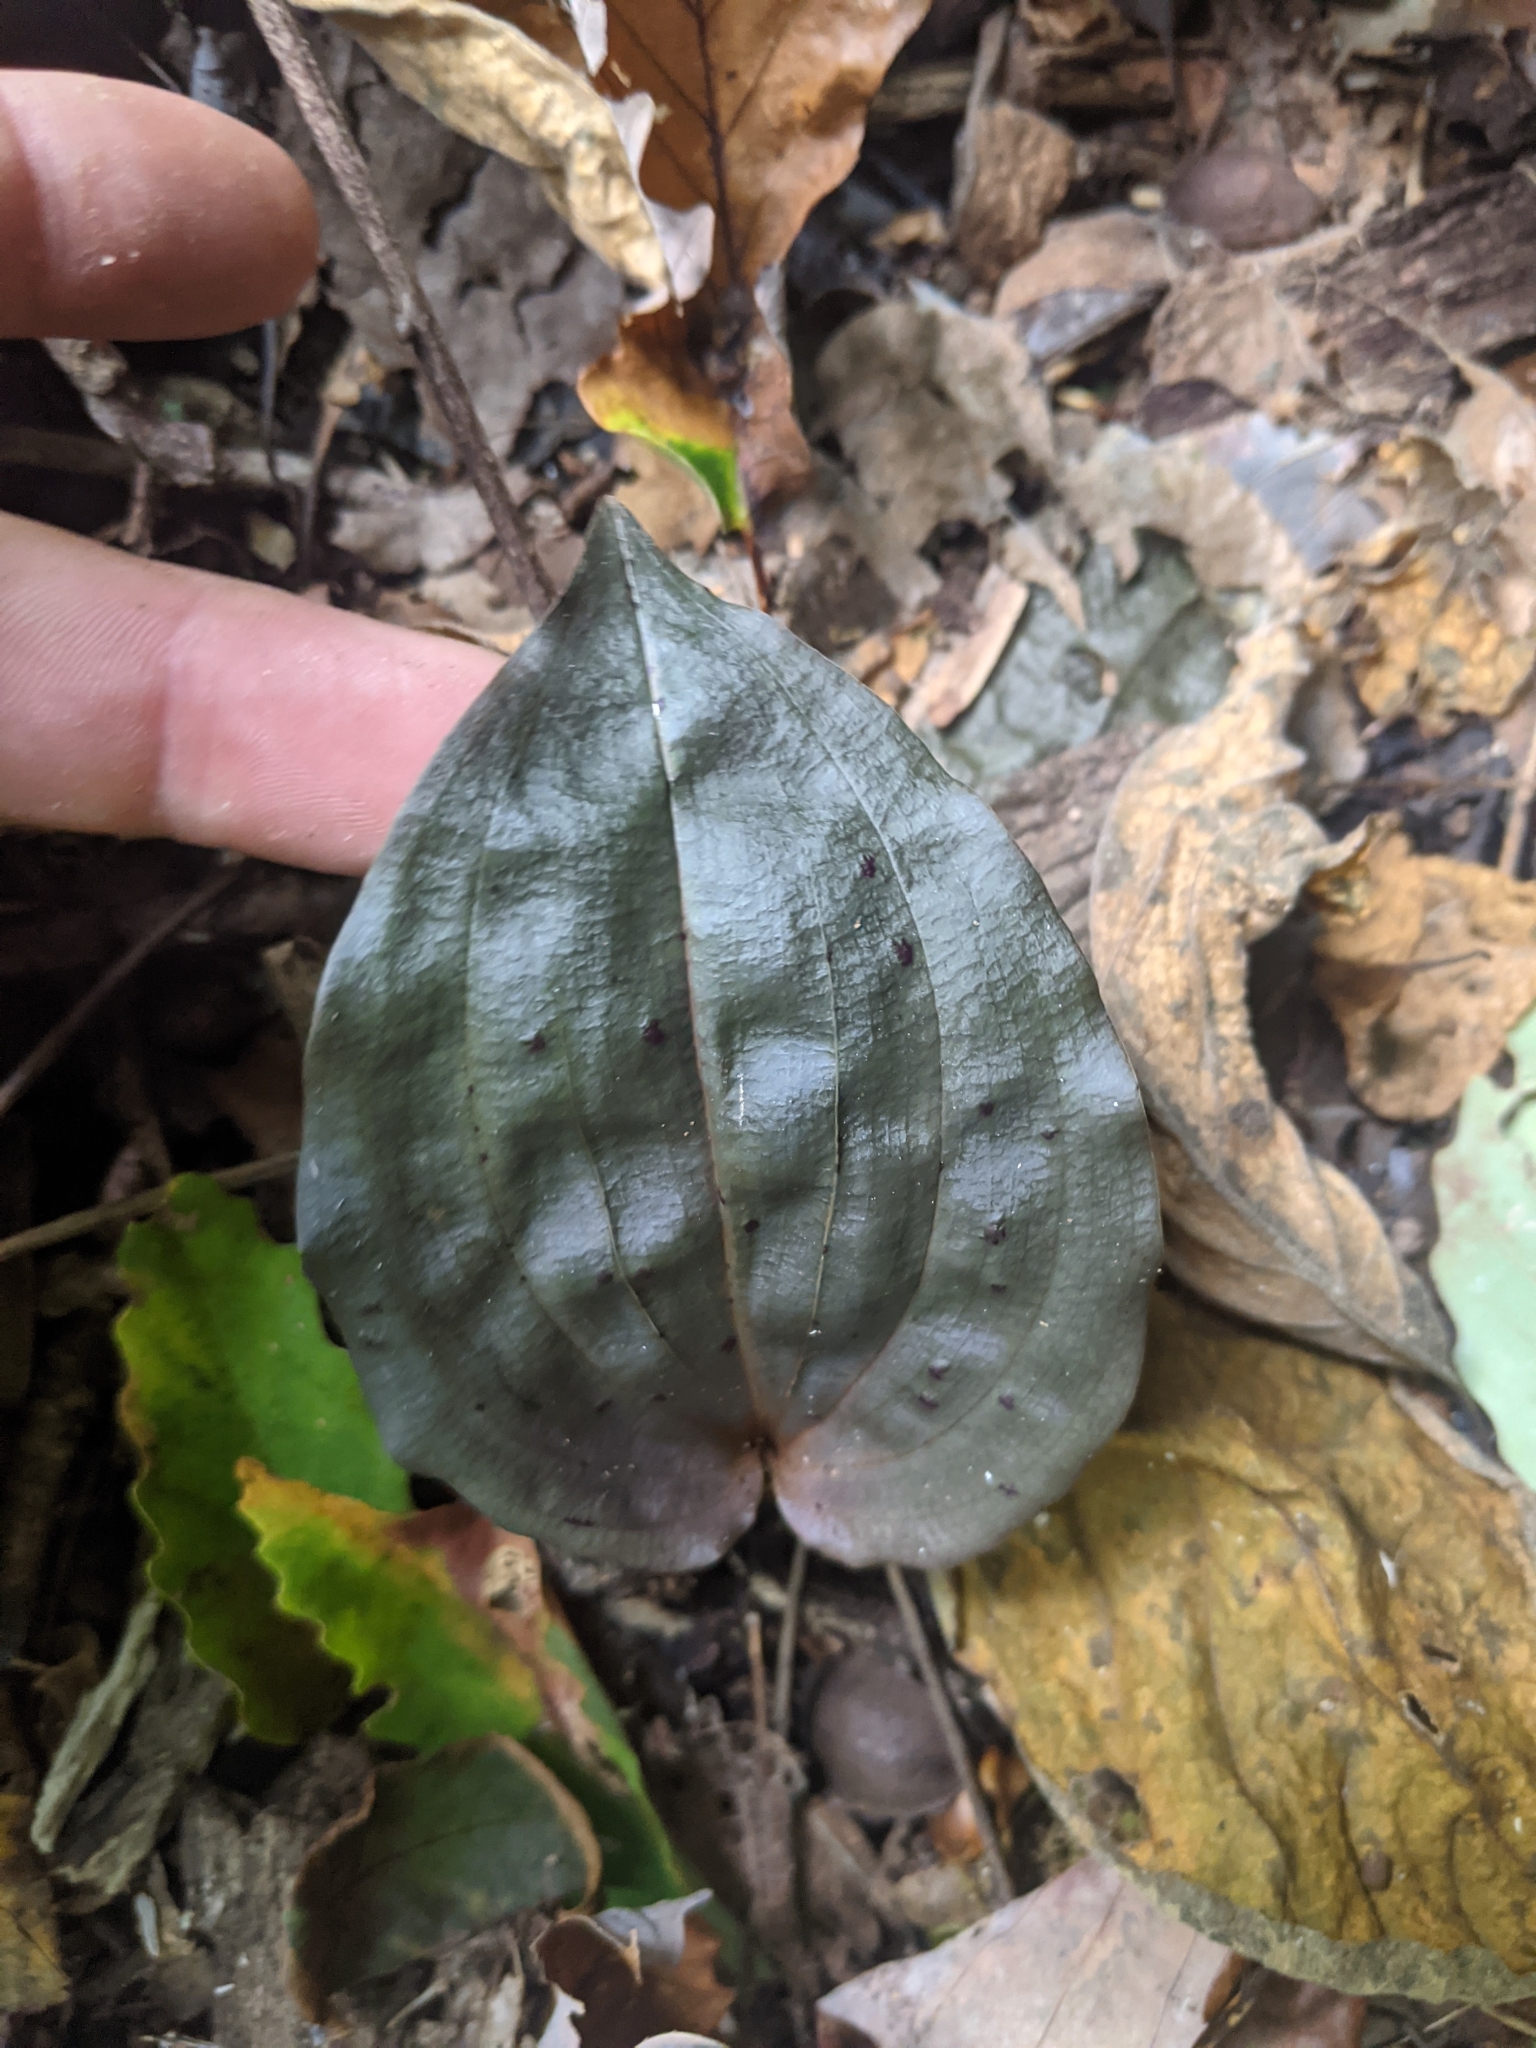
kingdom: Plantae
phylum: Tracheophyta
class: Liliopsida
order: Asparagales
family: Orchidaceae
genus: Tipularia
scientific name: Tipularia discolor
